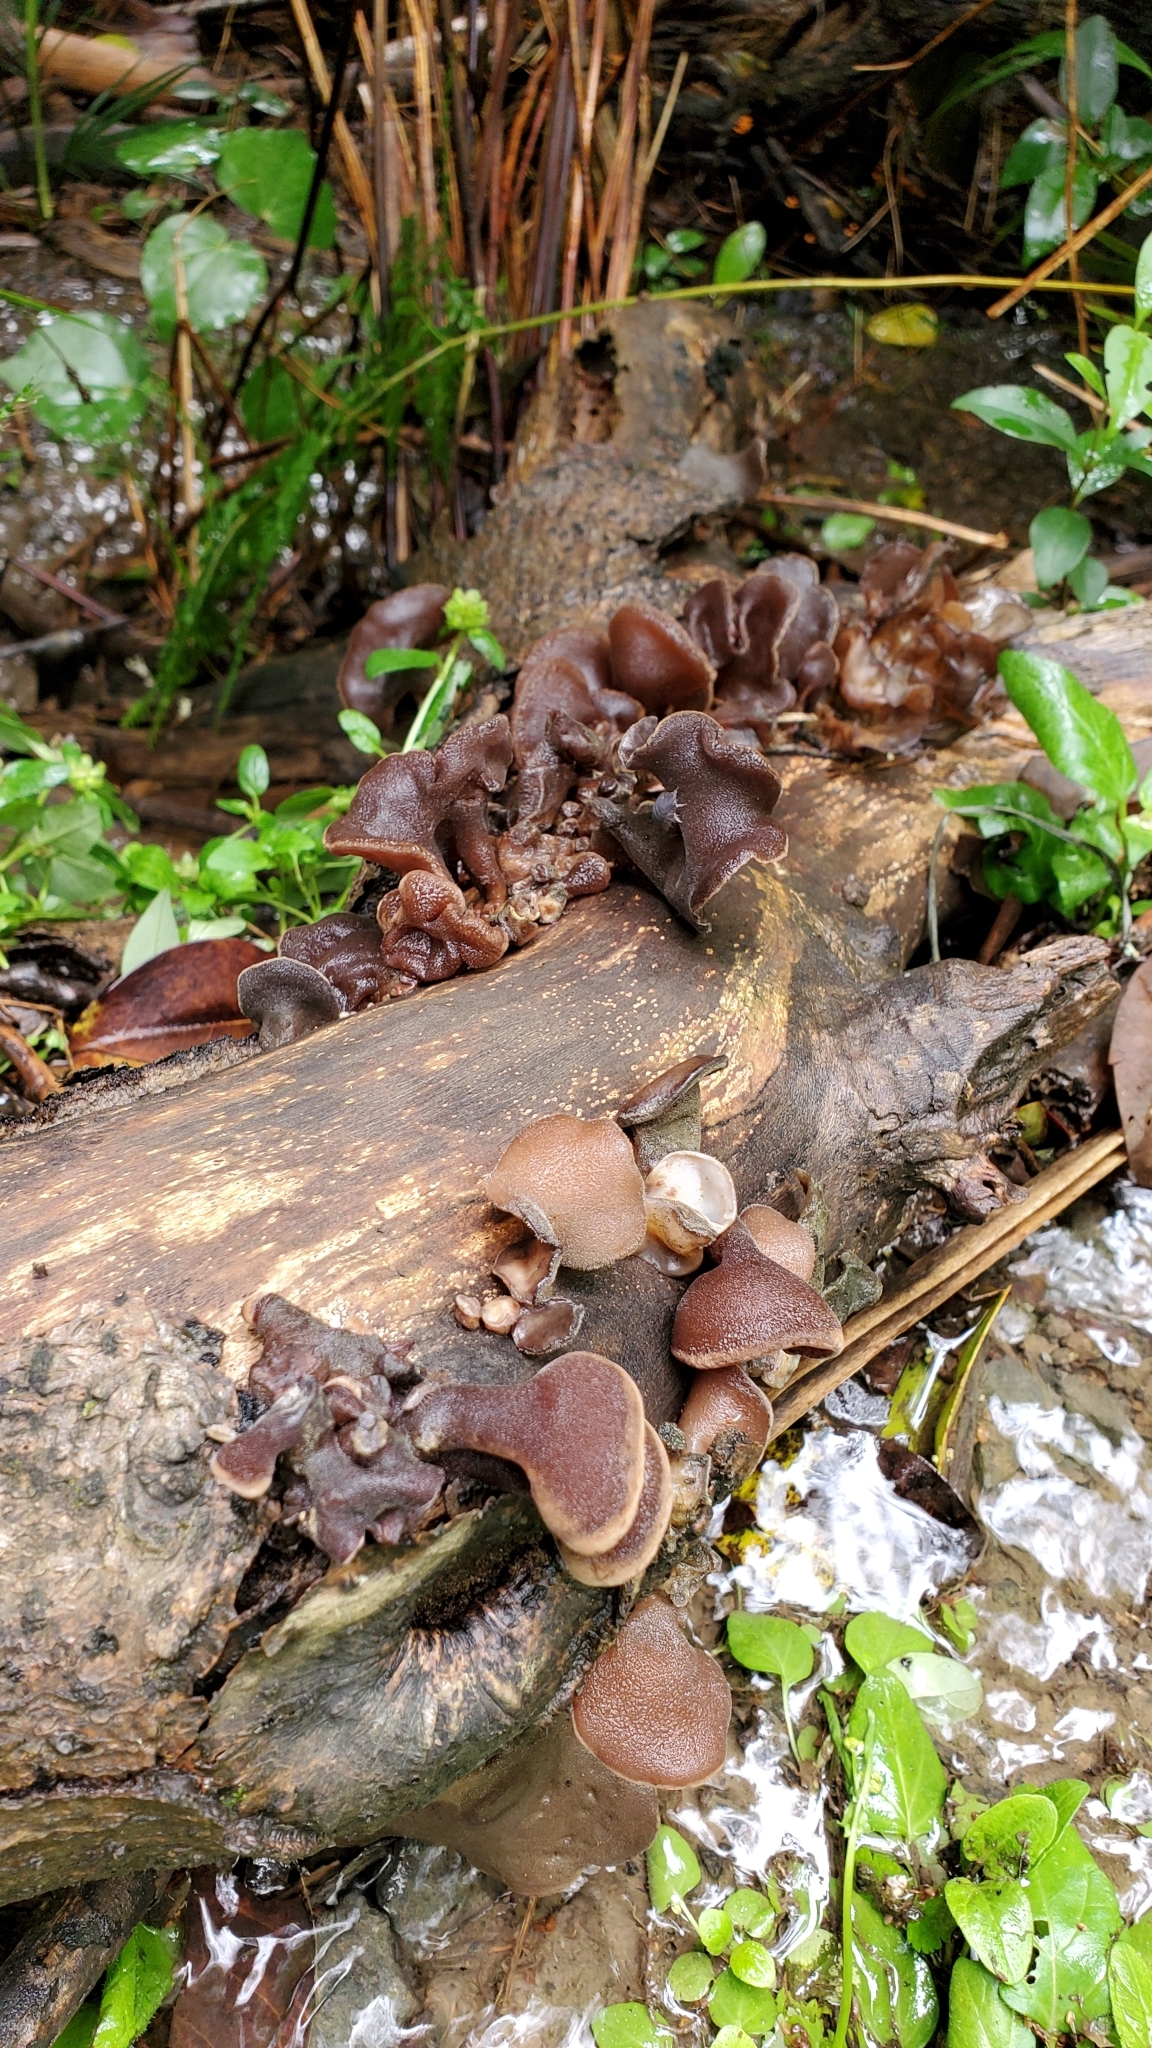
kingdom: Fungi
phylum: Basidiomycota
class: Agaricomycetes
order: Auriculariales
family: Auriculariaceae
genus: Auricularia
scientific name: Auricularia cornea
